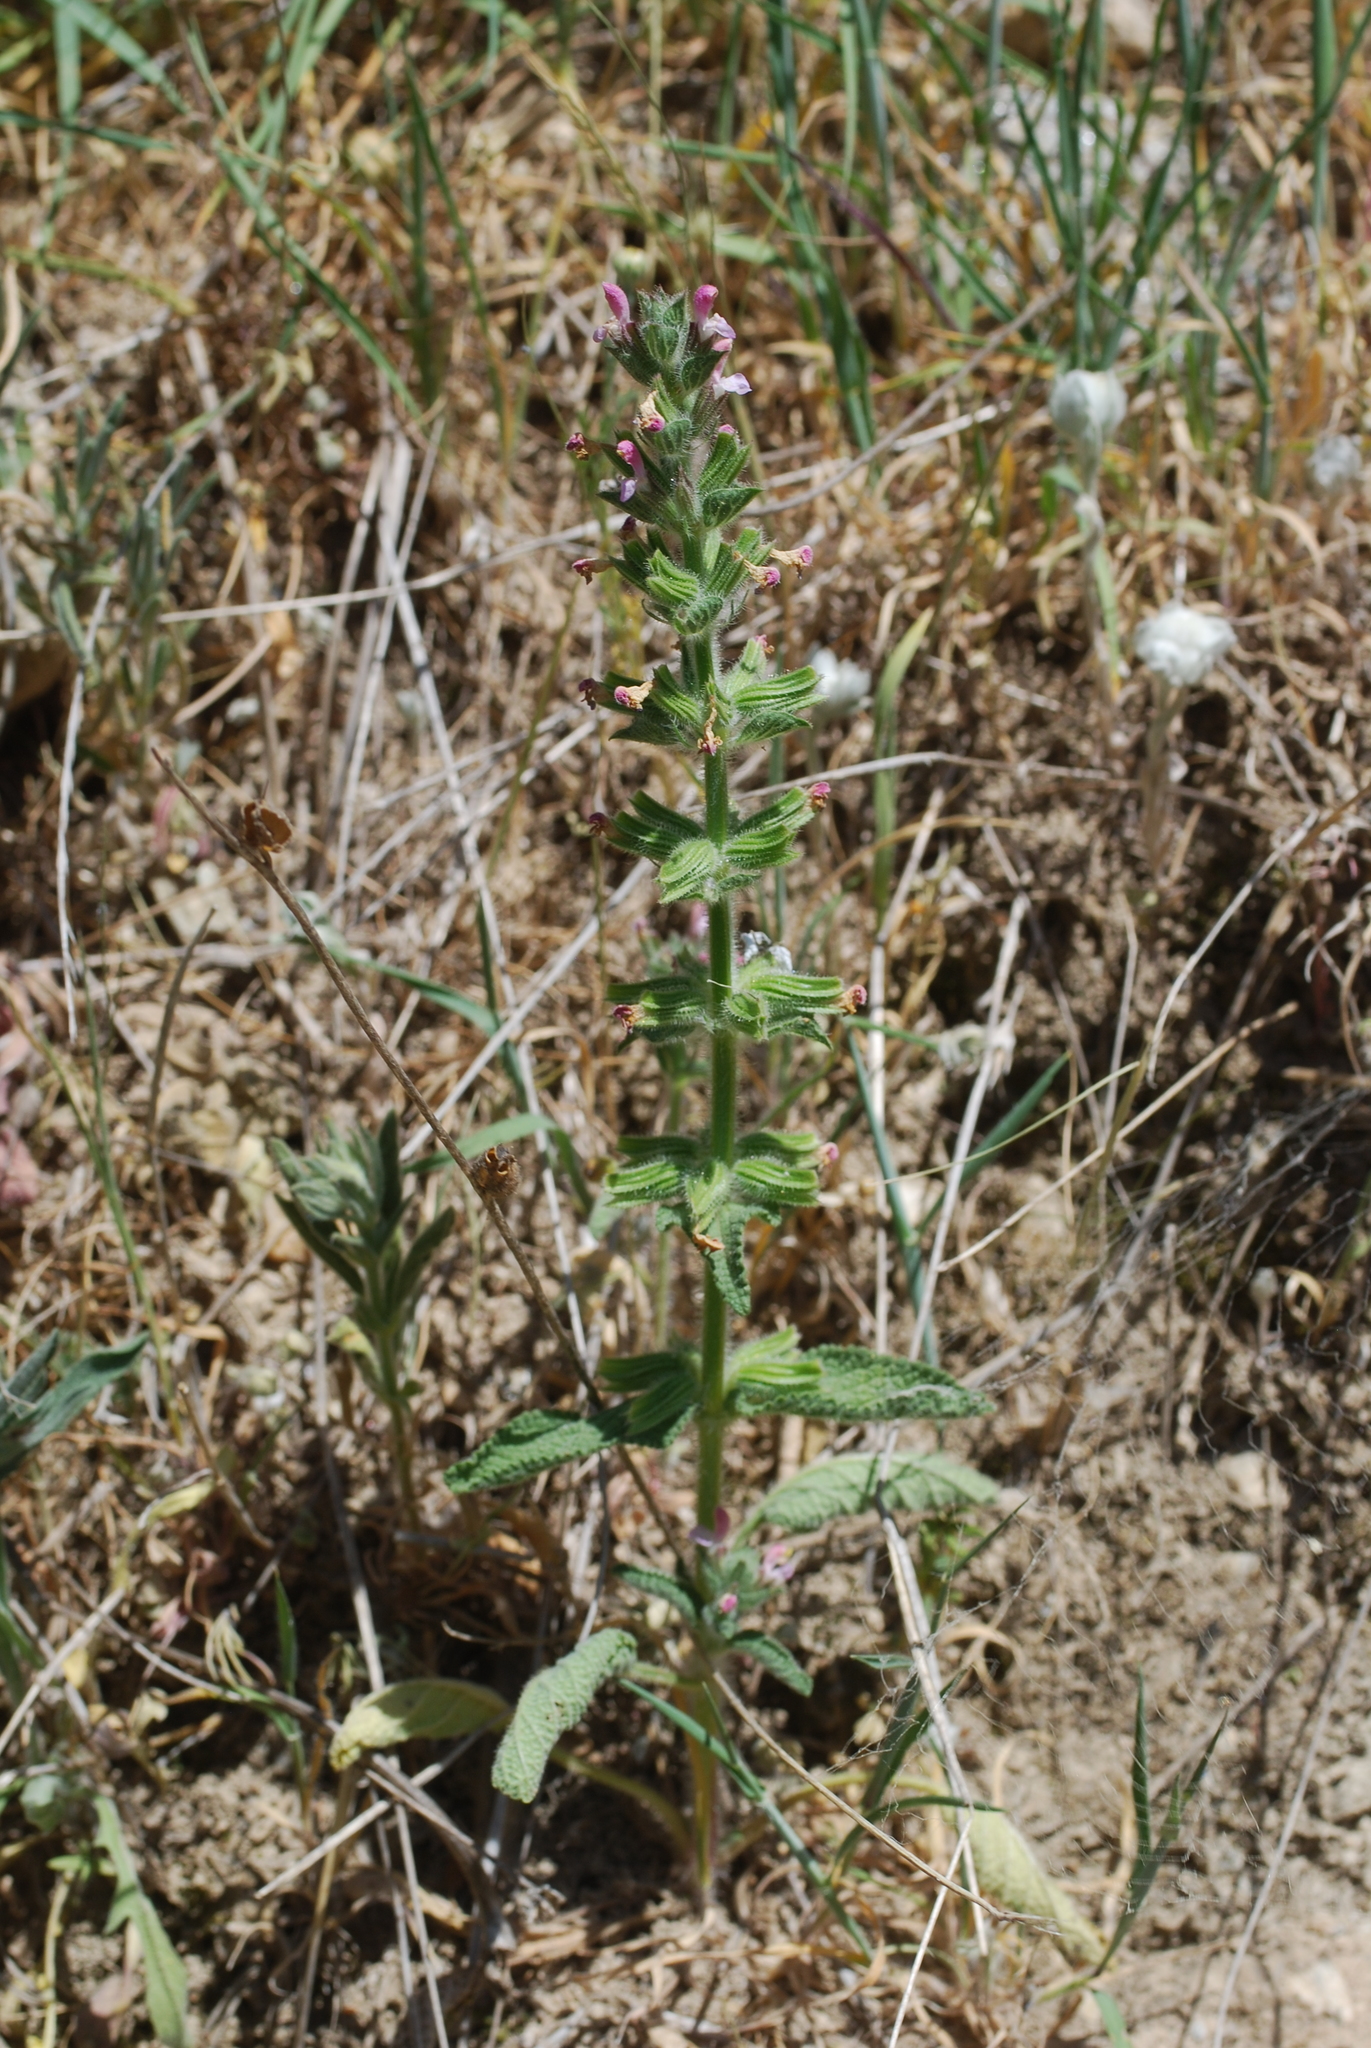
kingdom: Plantae
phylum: Tracheophyta
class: Magnoliopsida
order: Lamiales
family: Lamiaceae
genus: Salvia
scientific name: Salvia viridis
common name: Annual clary
